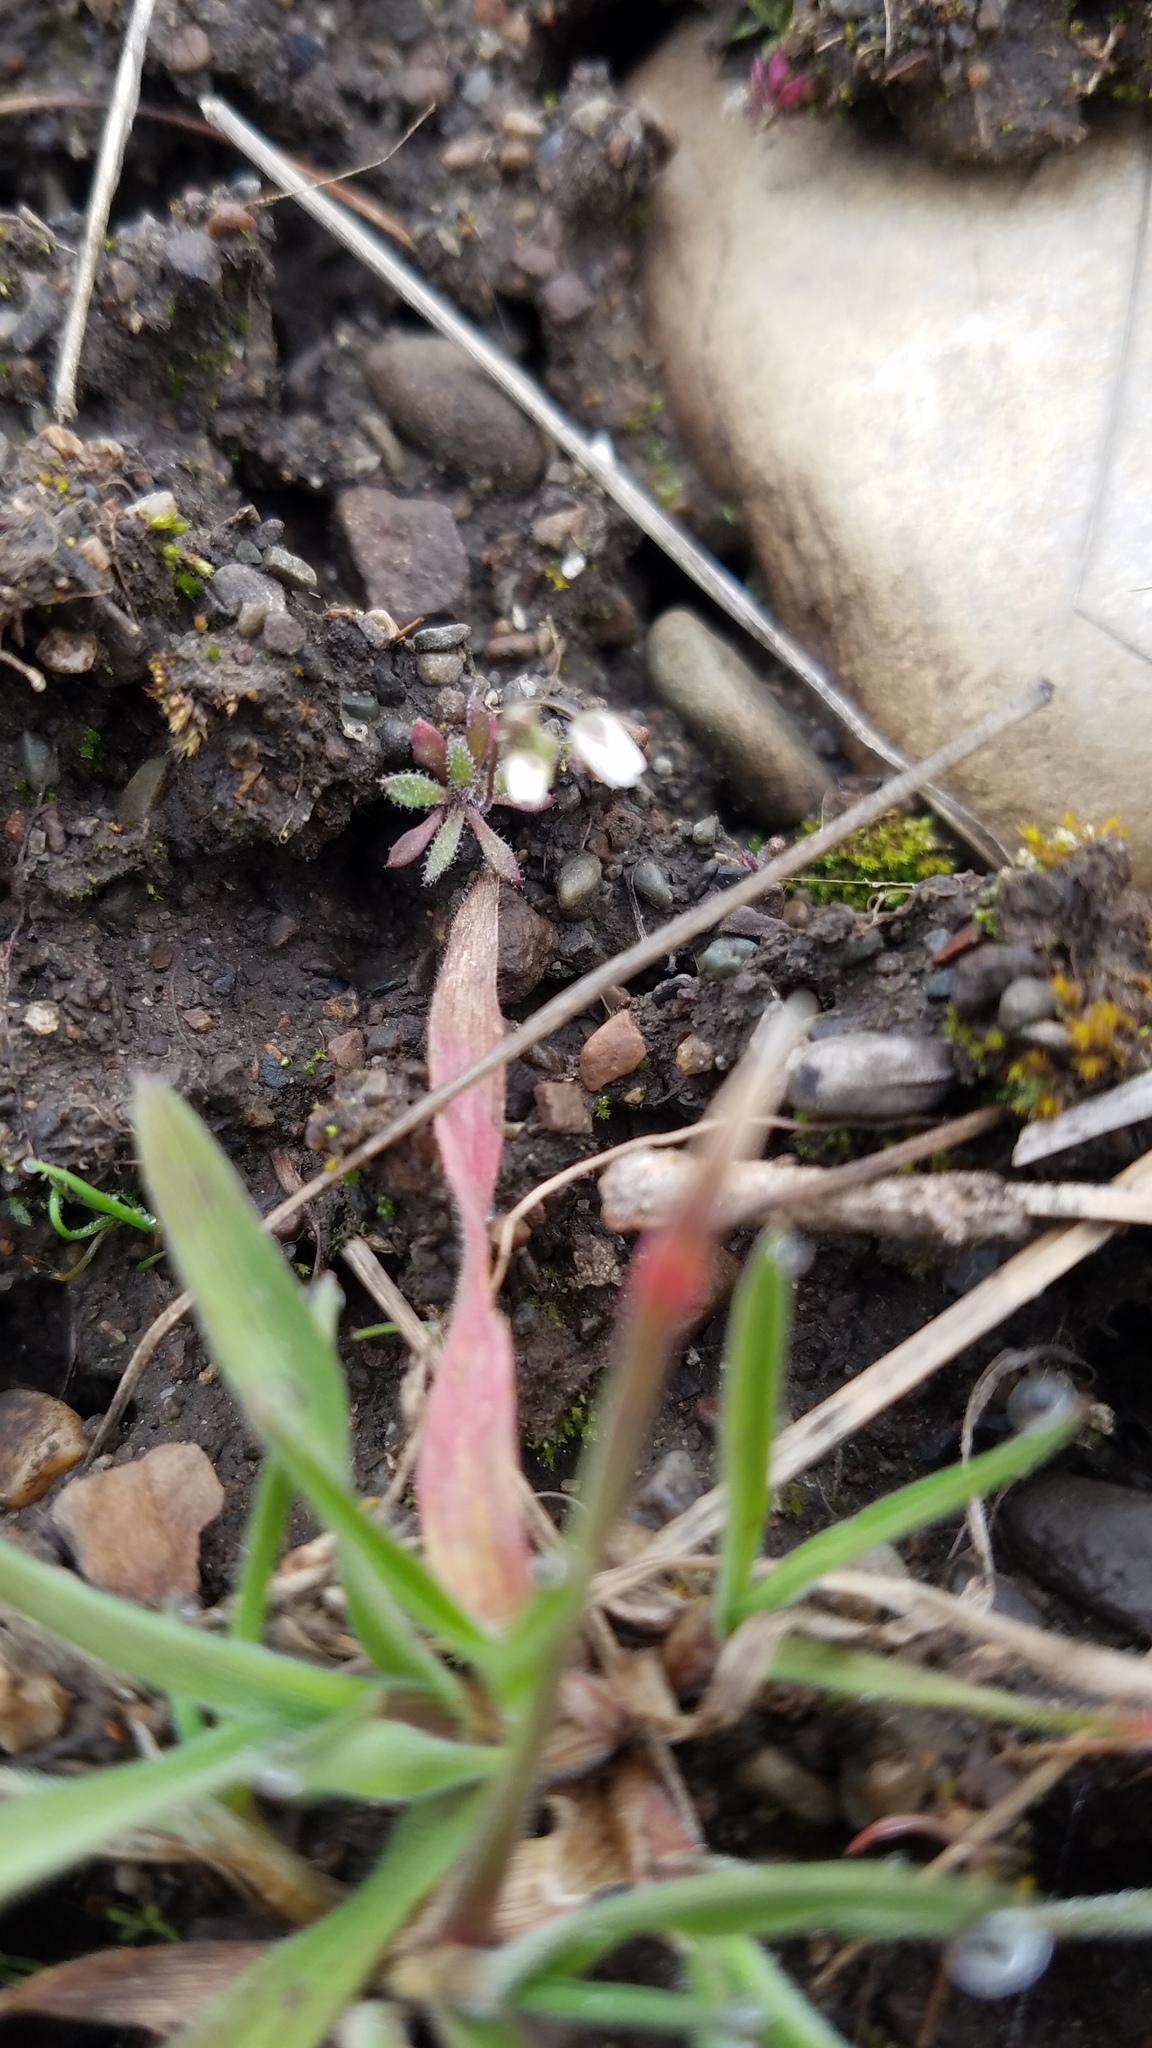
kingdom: Plantae
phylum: Tracheophyta
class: Magnoliopsida
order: Brassicales
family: Brassicaceae
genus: Draba
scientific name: Draba verna
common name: Spring draba
